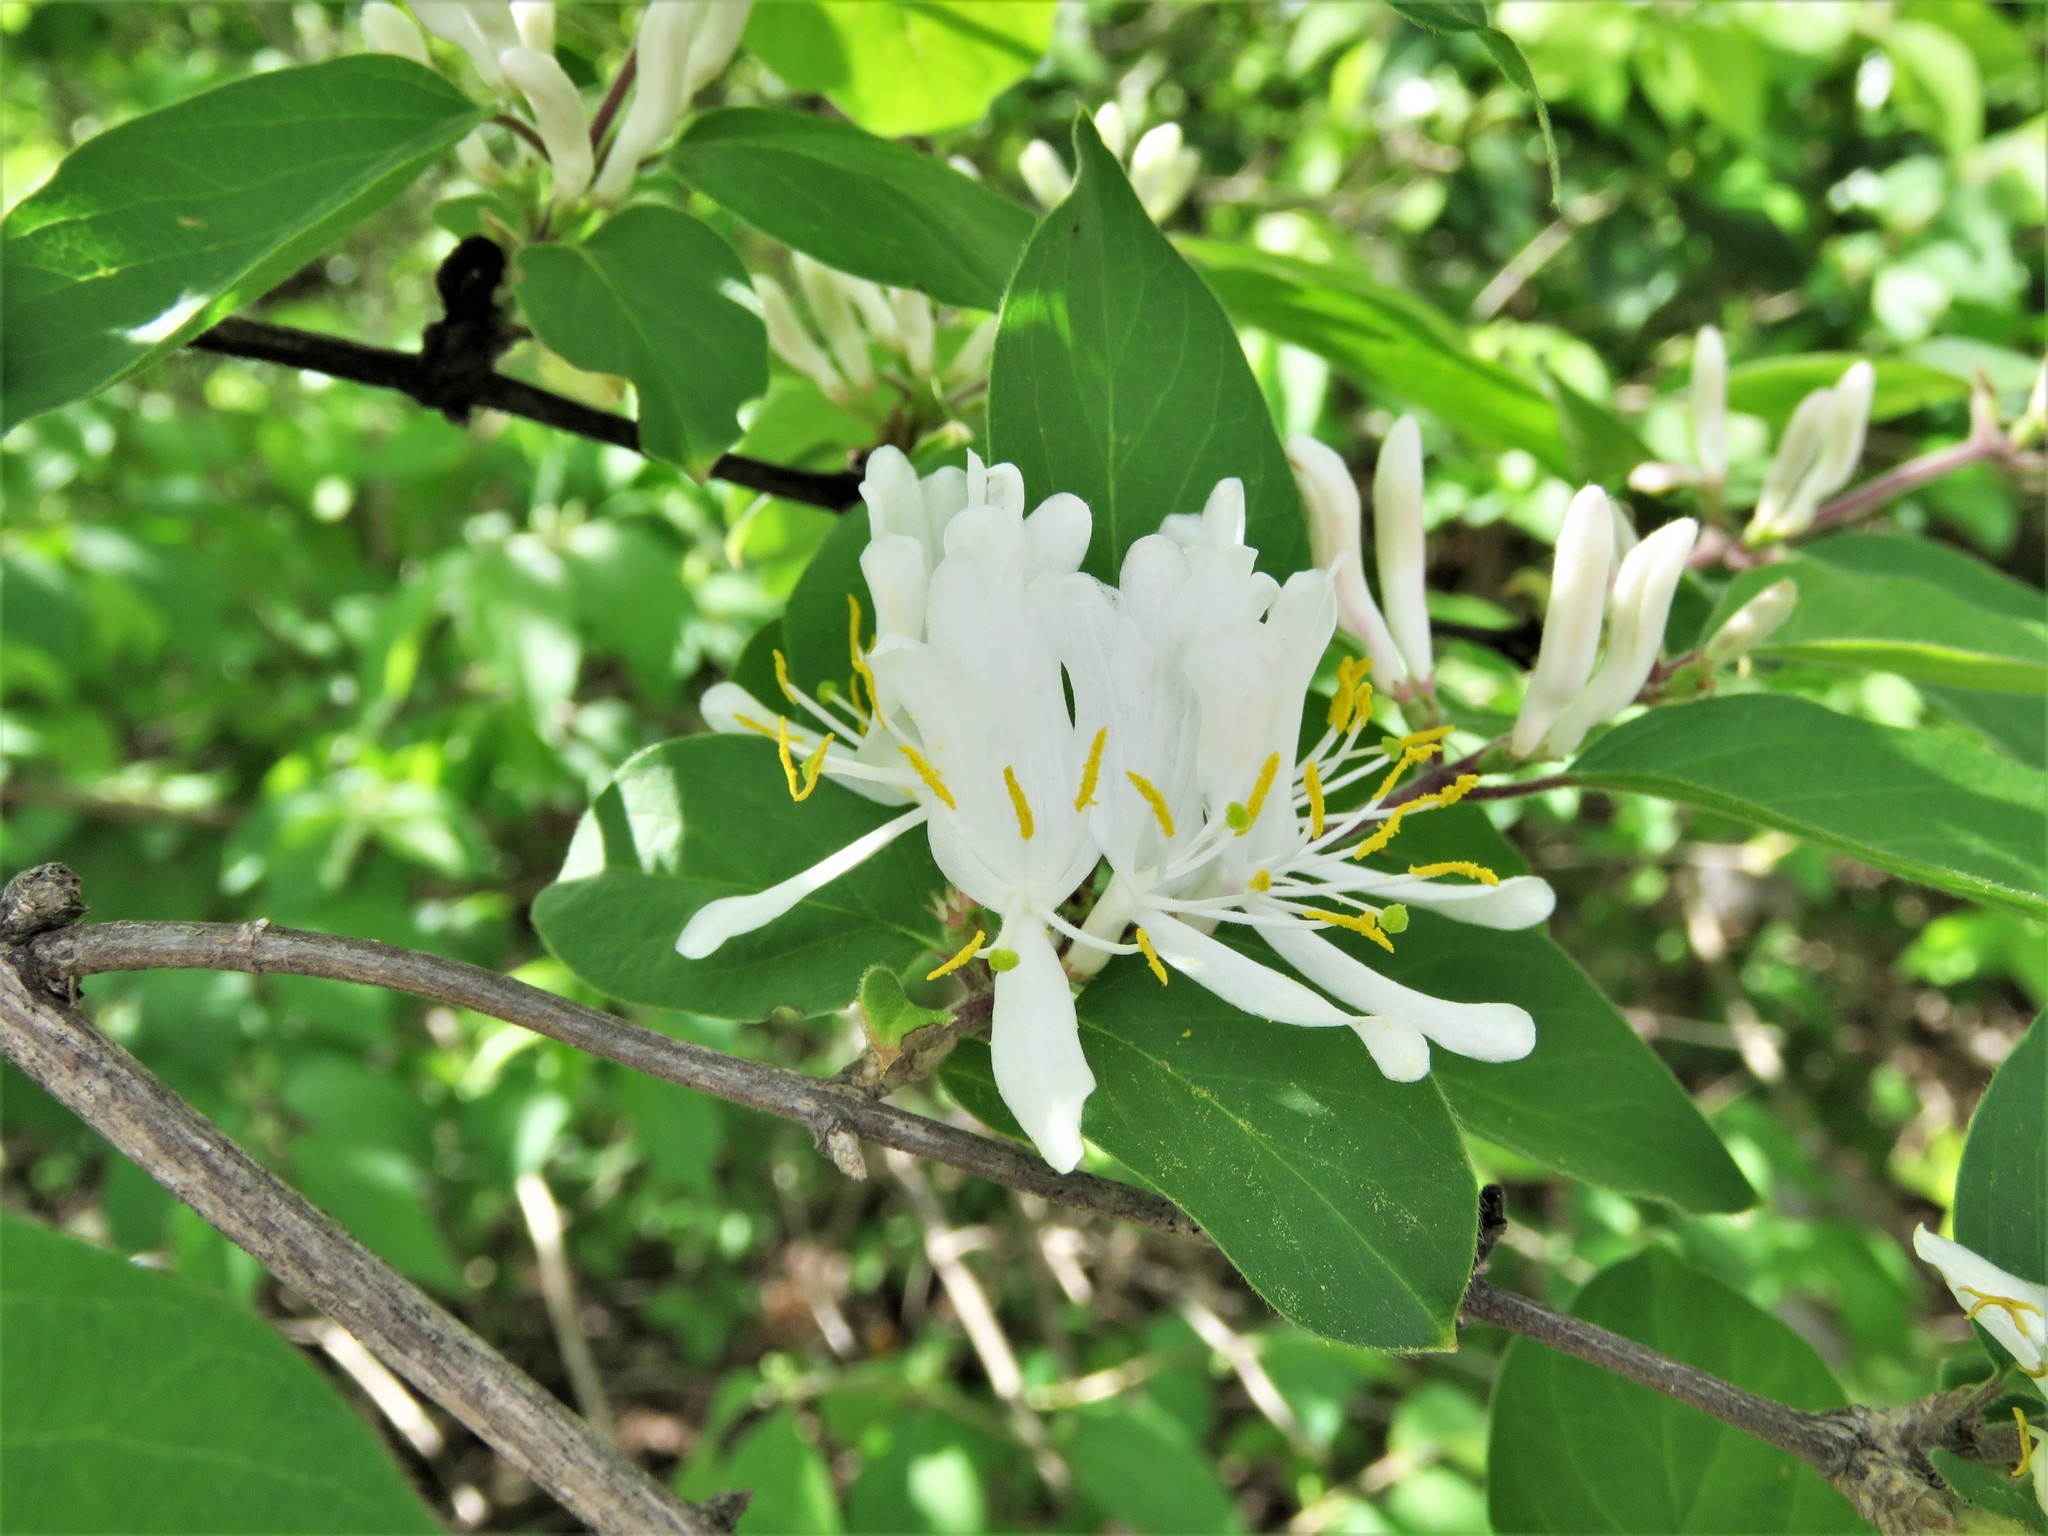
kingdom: Plantae
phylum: Tracheophyta
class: Magnoliopsida
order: Dipsacales
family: Caprifoliaceae
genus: Lonicera
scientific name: Lonicera maackii
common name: Amur honeysuckle
